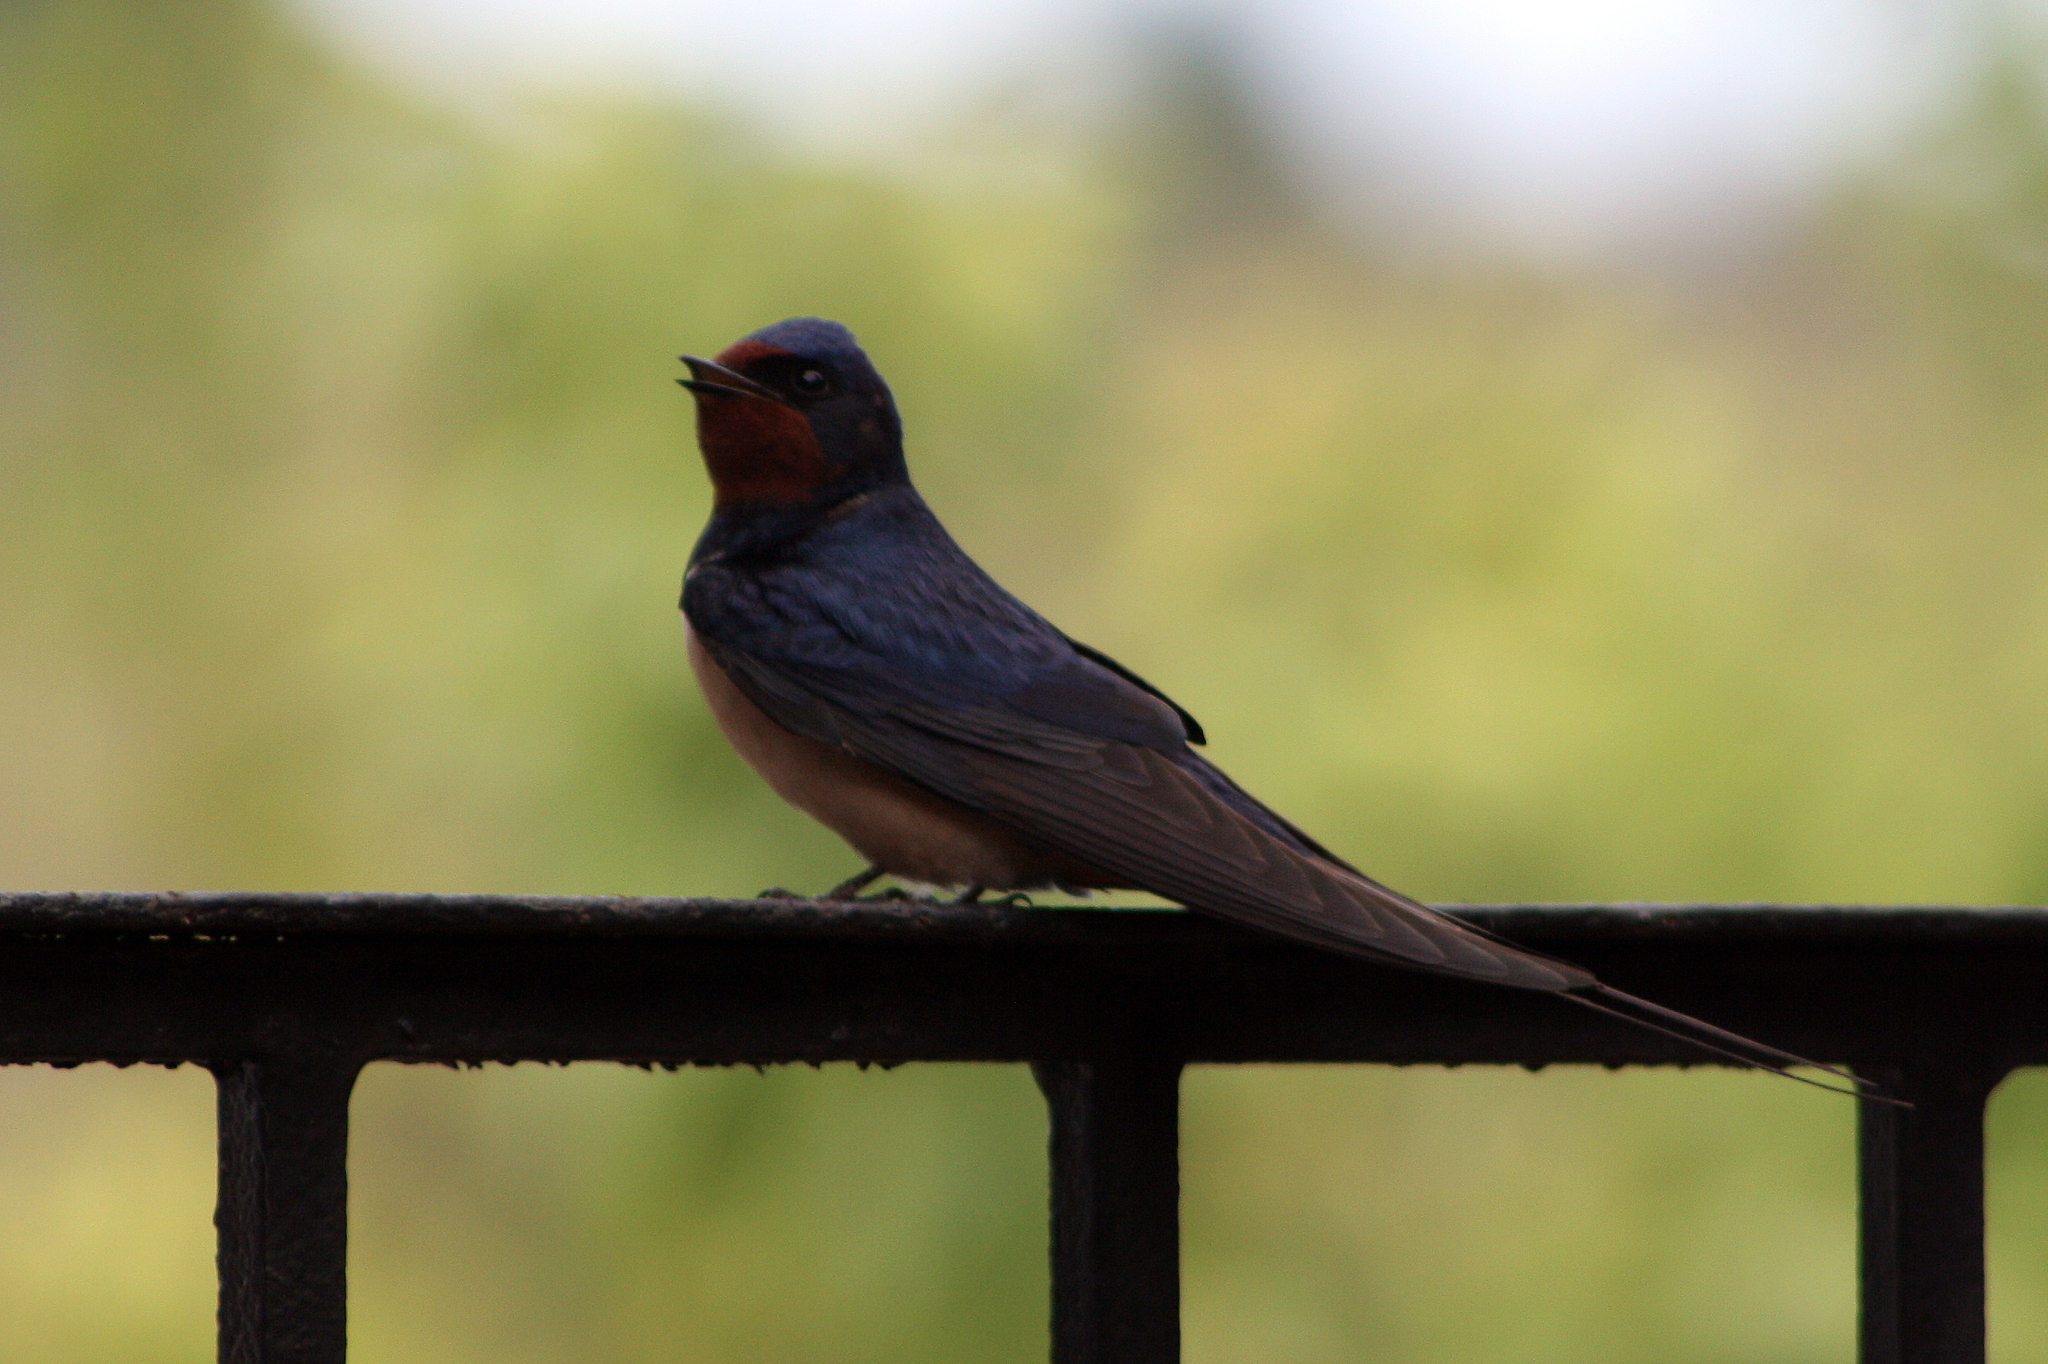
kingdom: Animalia
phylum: Chordata
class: Aves
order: Passeriformes
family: Hirundinidae
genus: Hirundo
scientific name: Hirundo rustica
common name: Barn swallow
